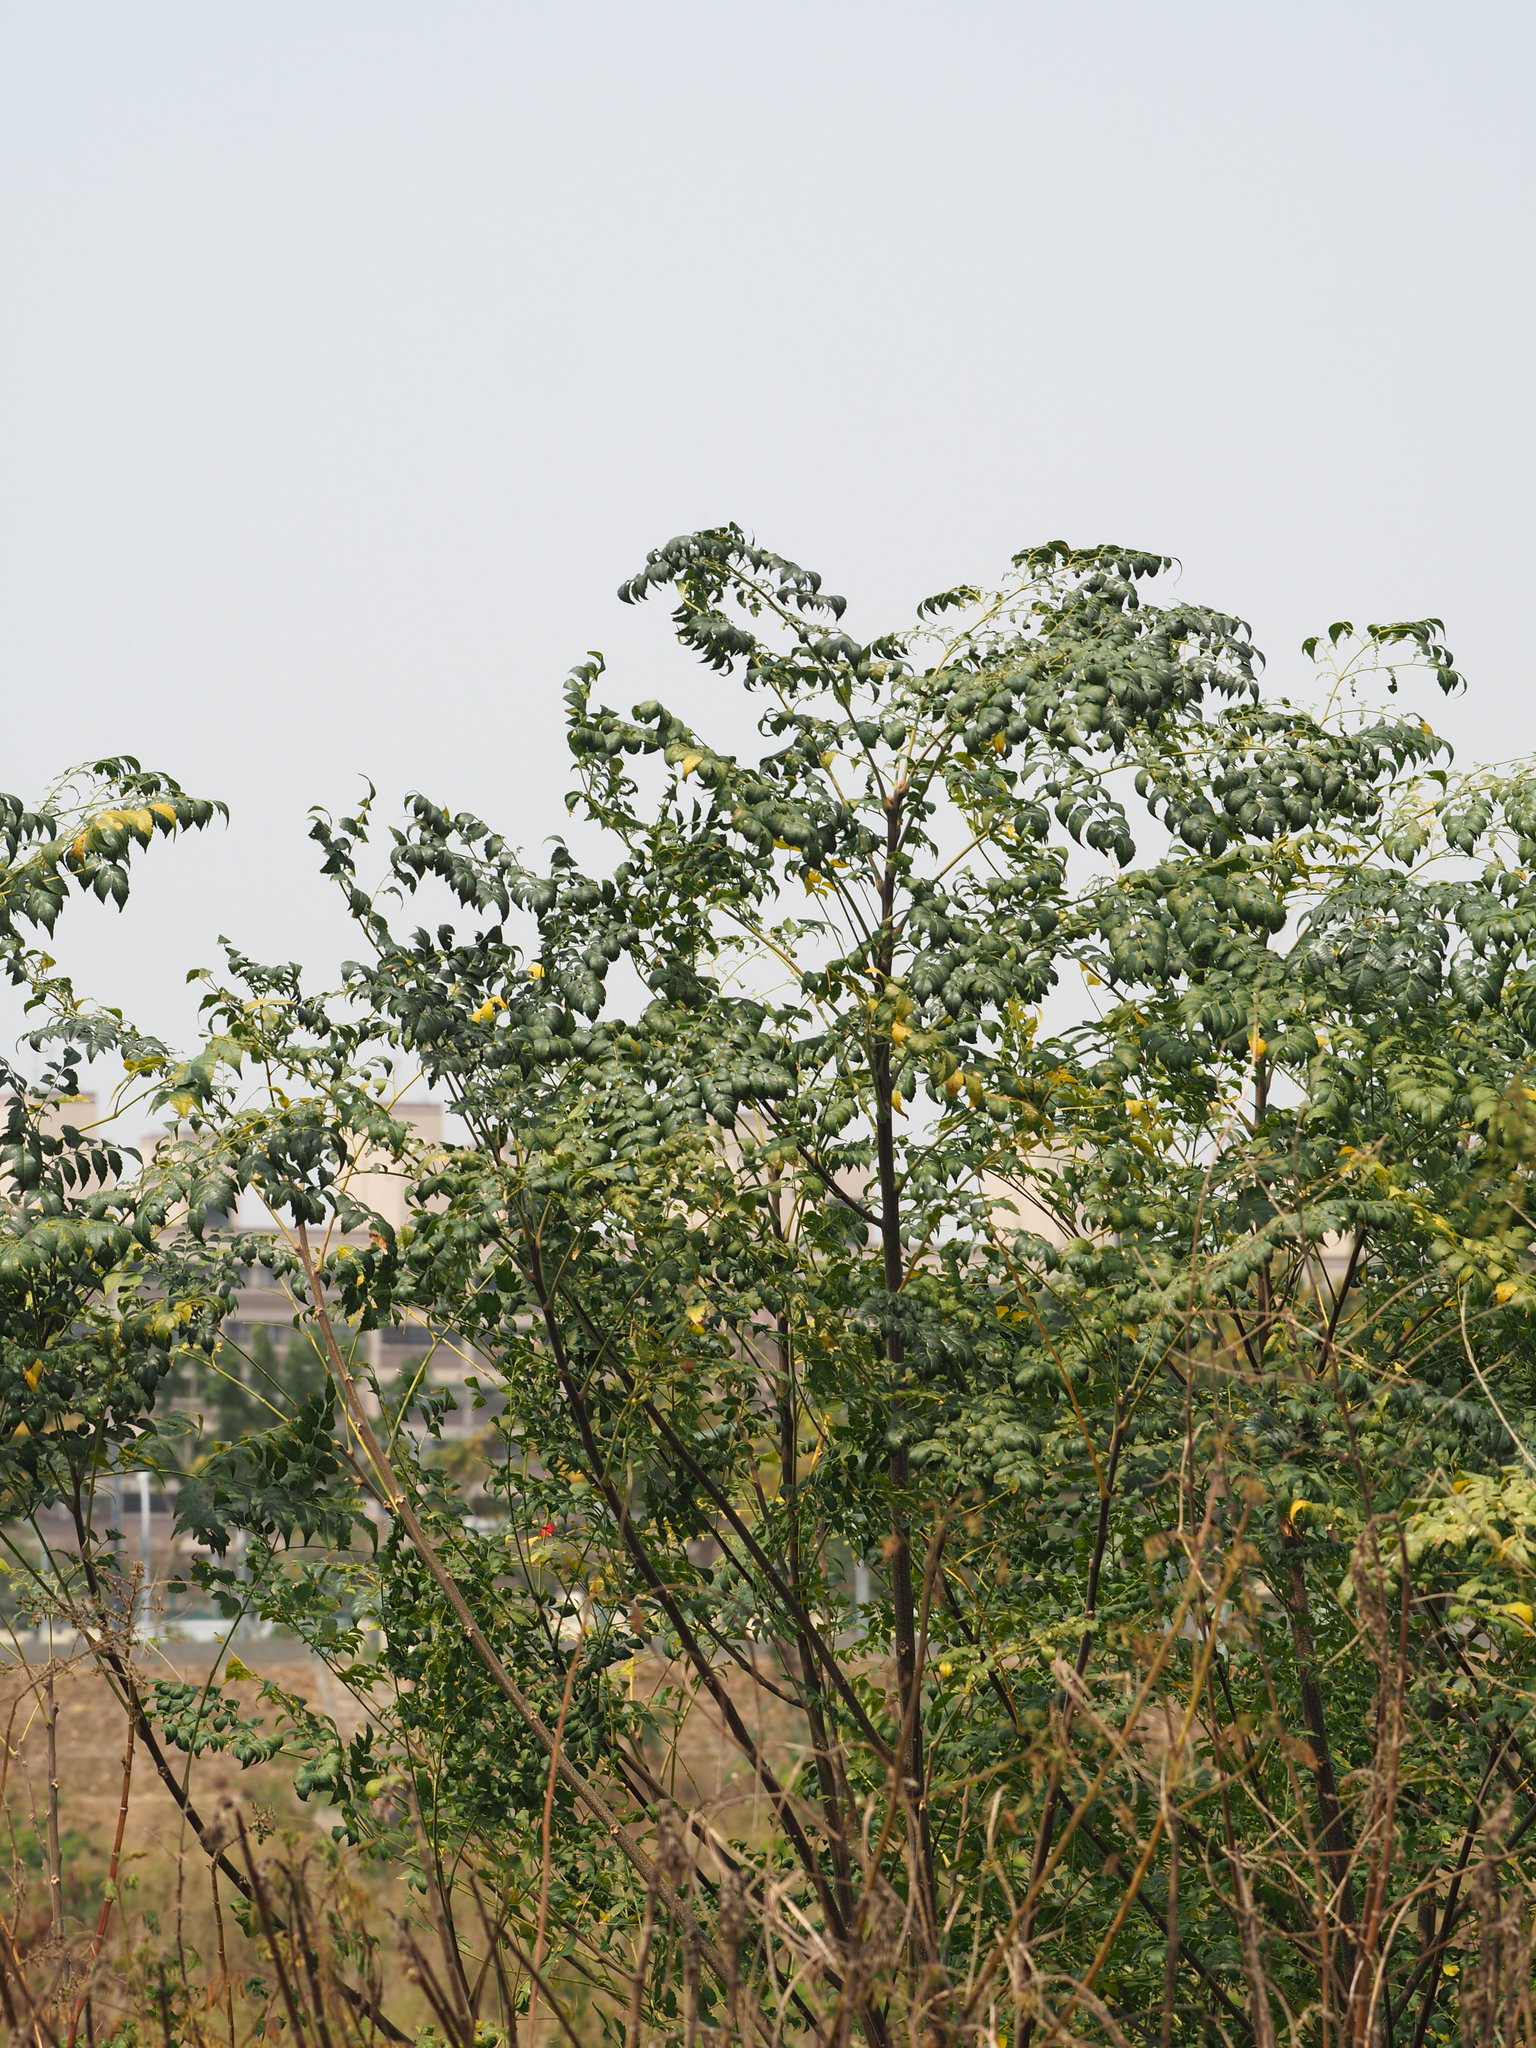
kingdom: Plantae
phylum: Tracheophyta
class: Magnoliopsida
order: Sapindales
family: Meliaceae
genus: Melia
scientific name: Melia azedarach
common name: Chinaberrytree
